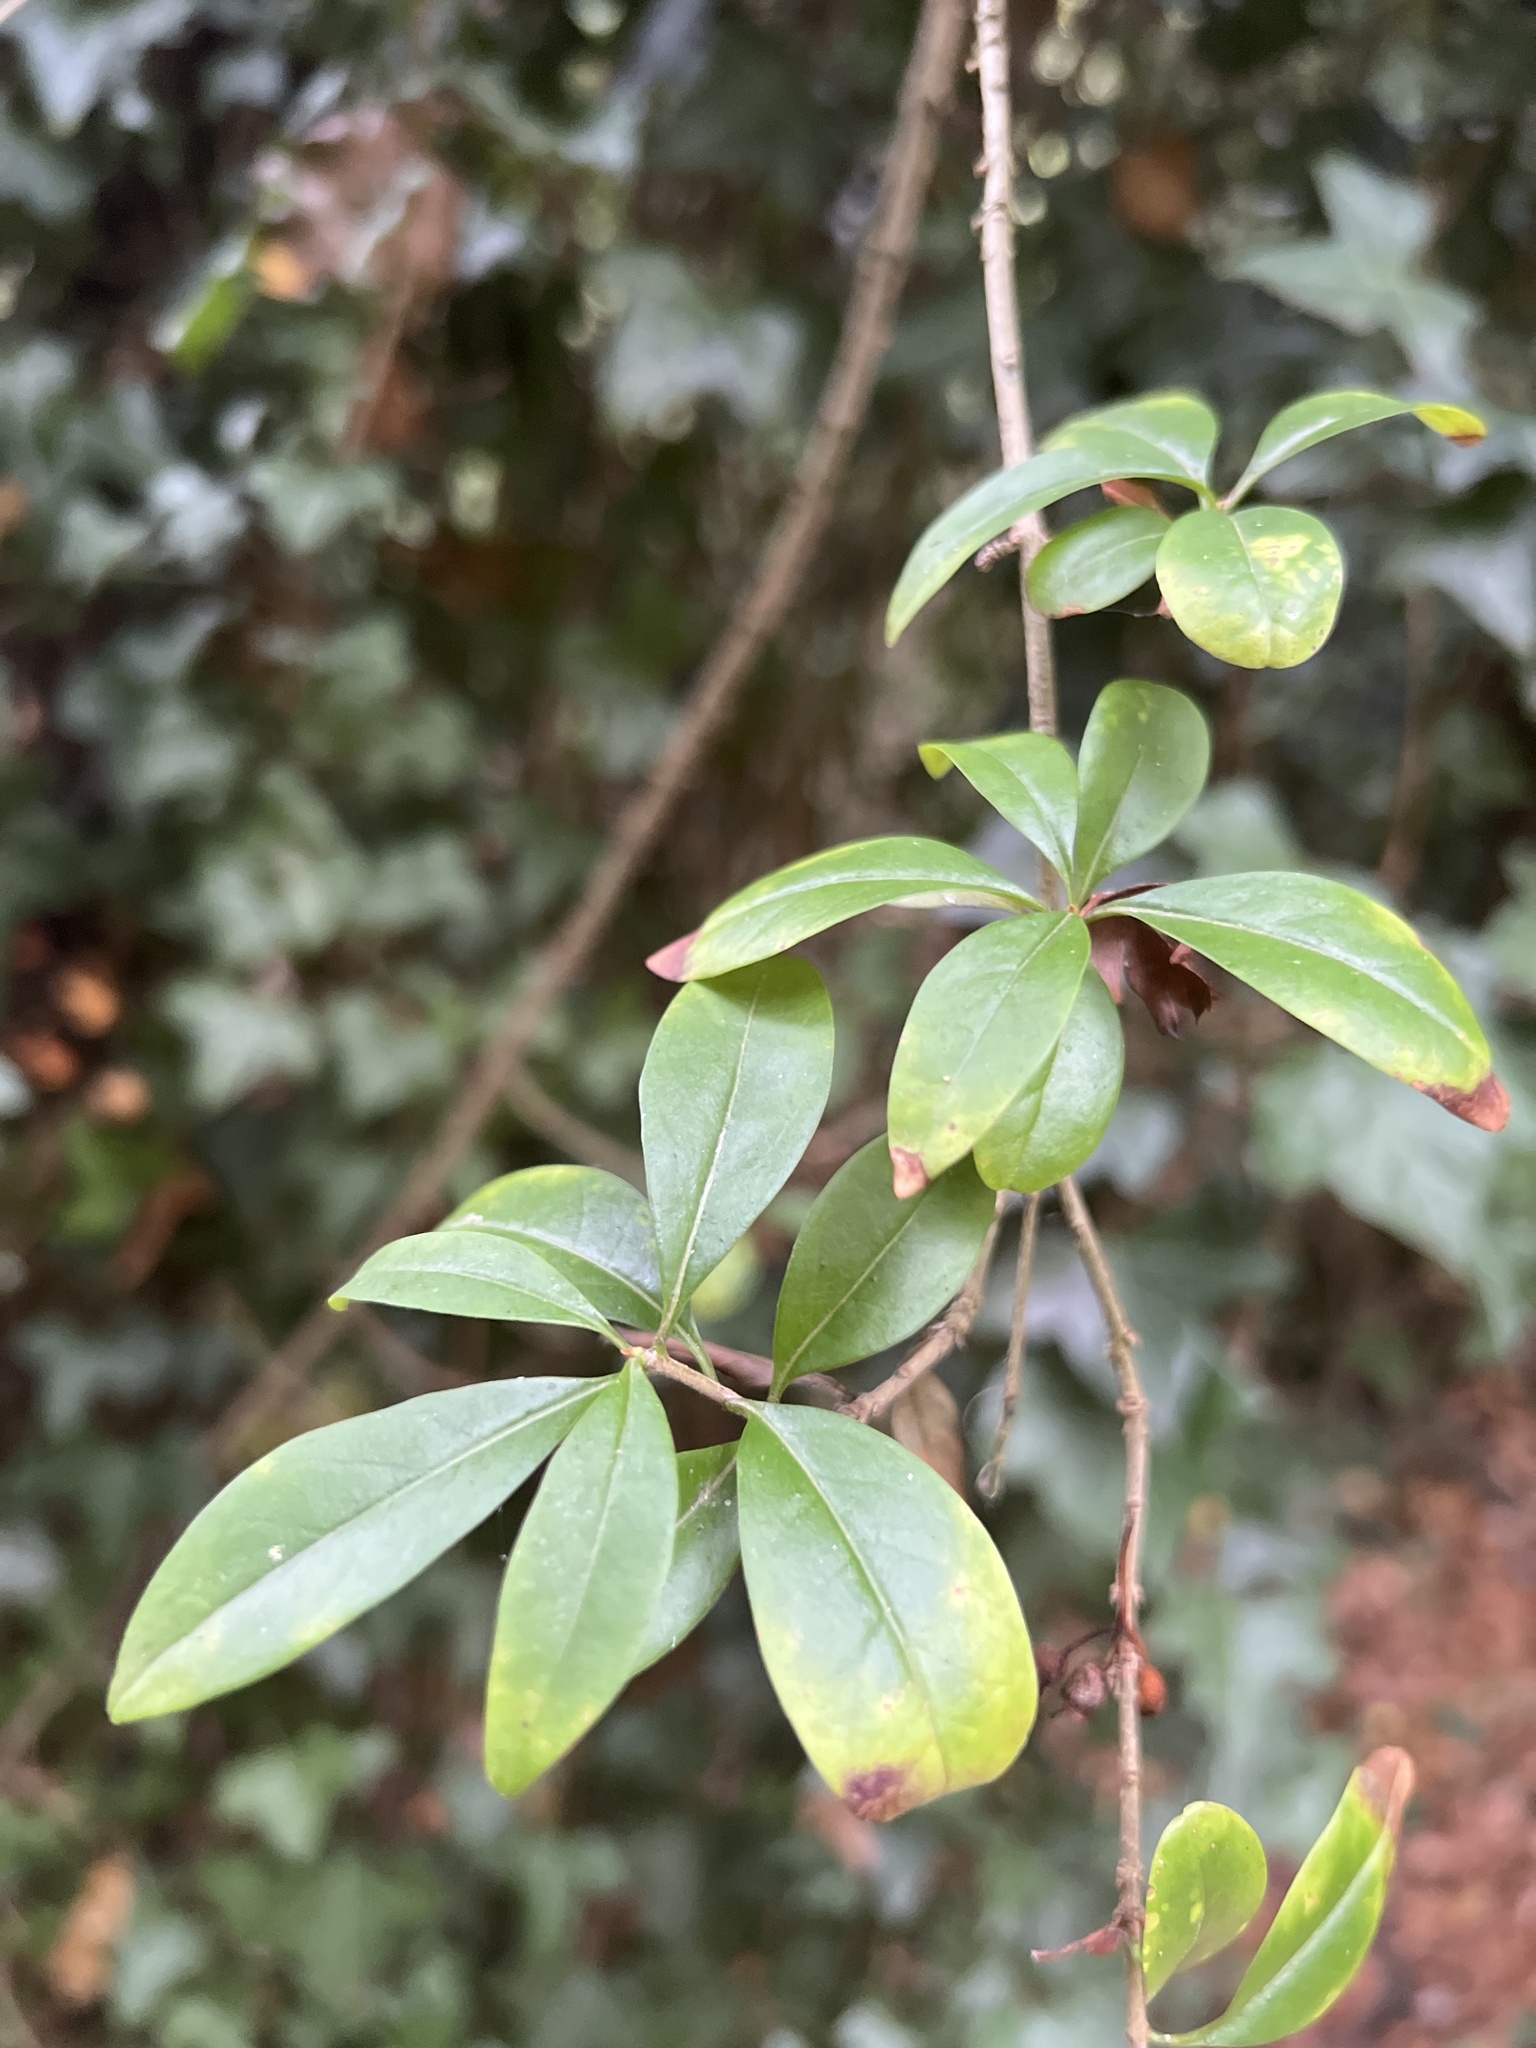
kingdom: Plantae
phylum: Tracheophyta
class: Magnoliopsida
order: Ranunculales
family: Berberidaceae
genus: Berberis
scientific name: Berberis vulgaris
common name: Barberry
